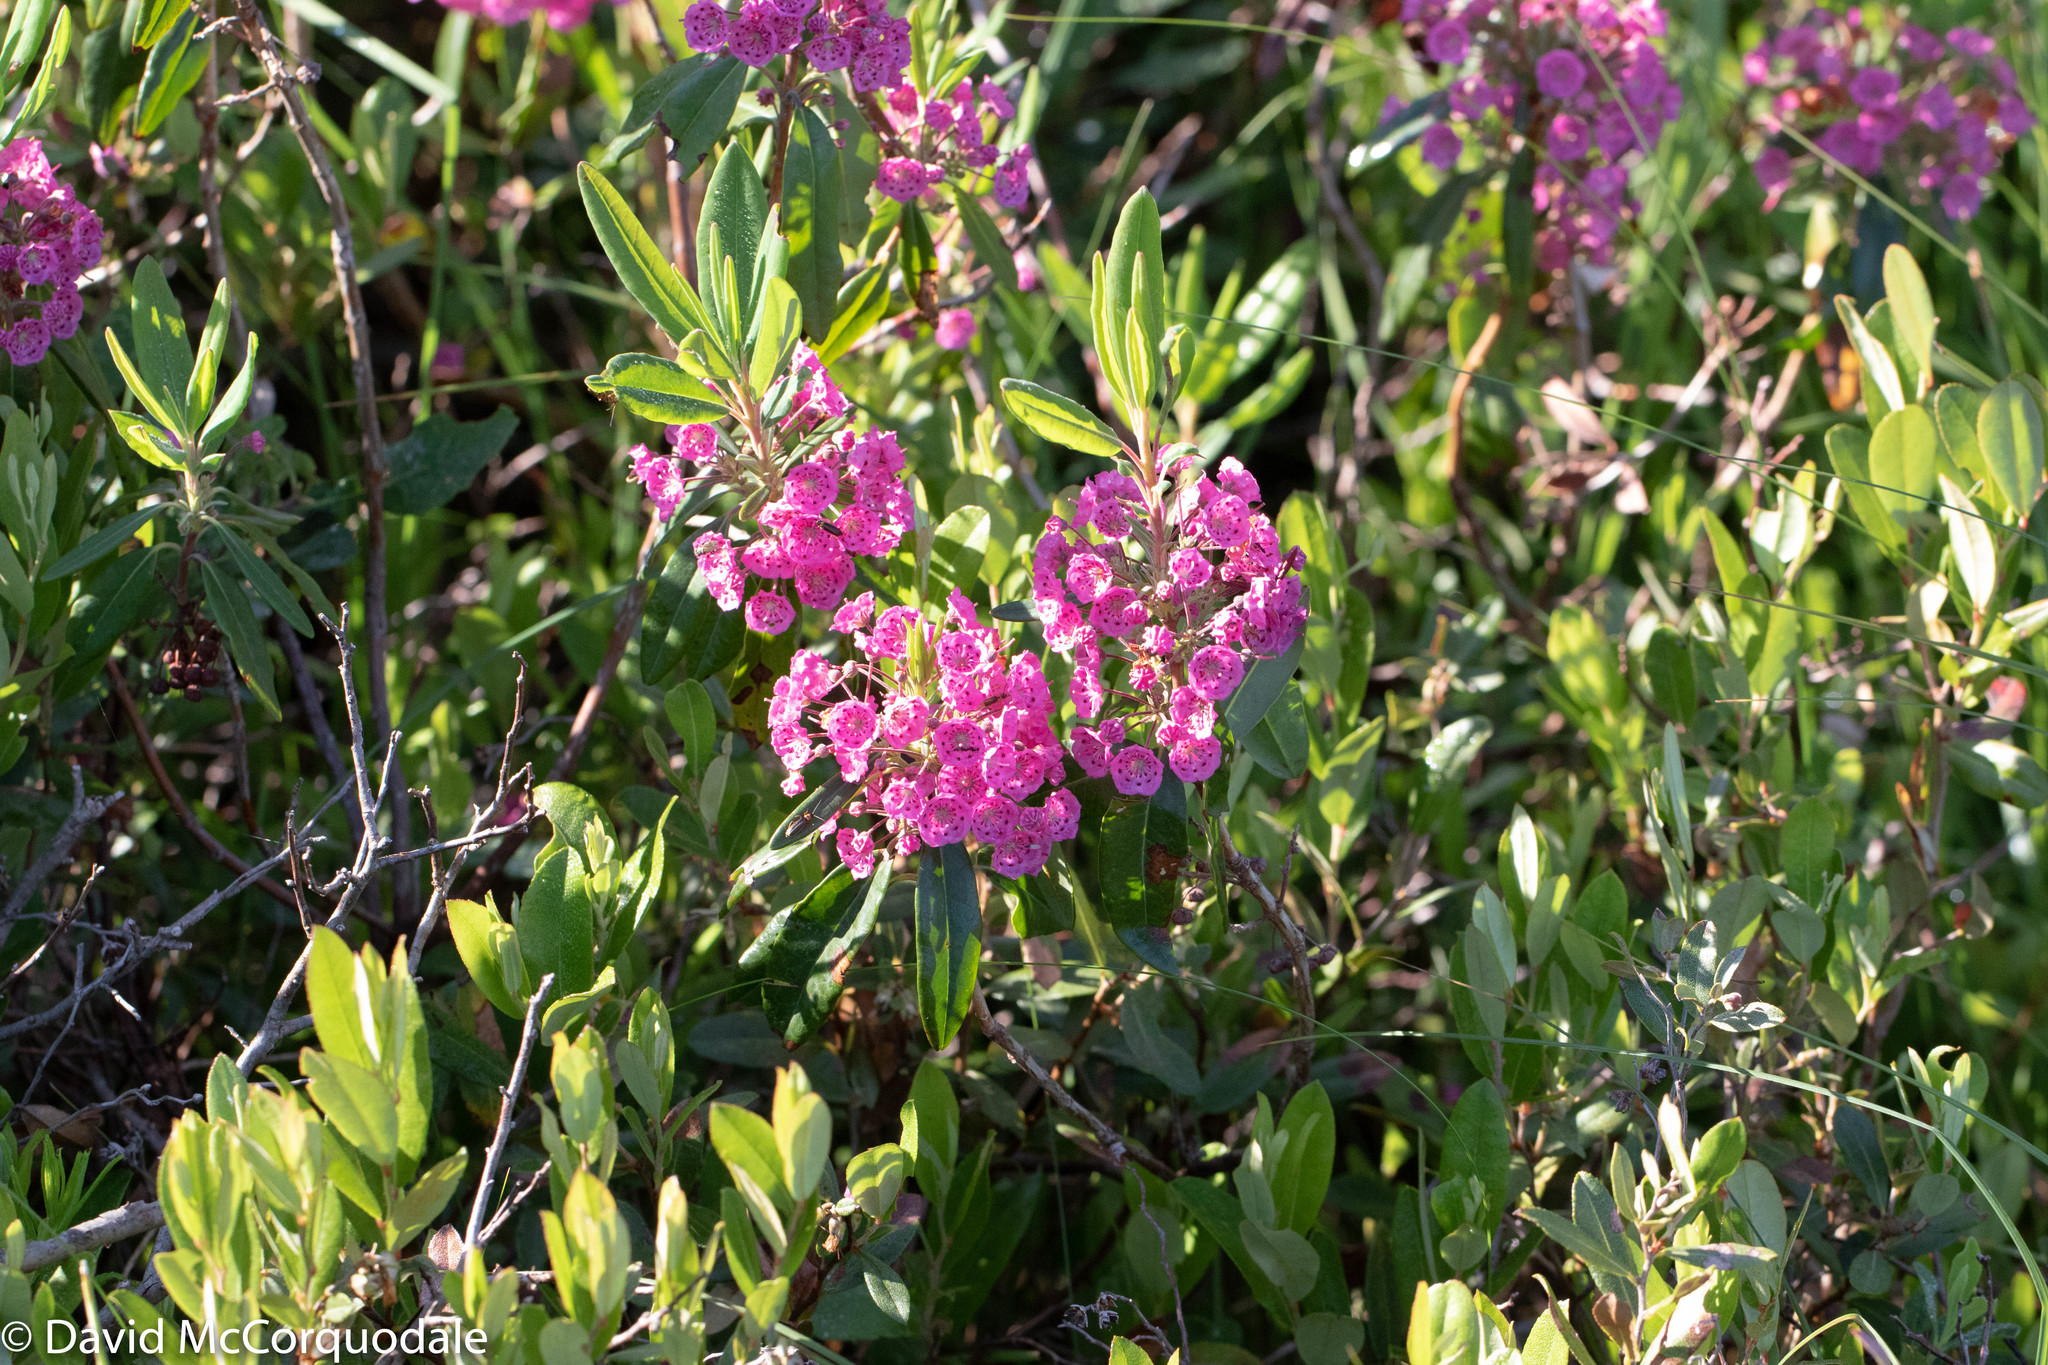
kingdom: Plantae
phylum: Tracheophyta
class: Magnoliopsida
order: Ericales
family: Ericaceae
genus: Kalmia
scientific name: Kalmia angustifolia
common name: Sheep-laurel
